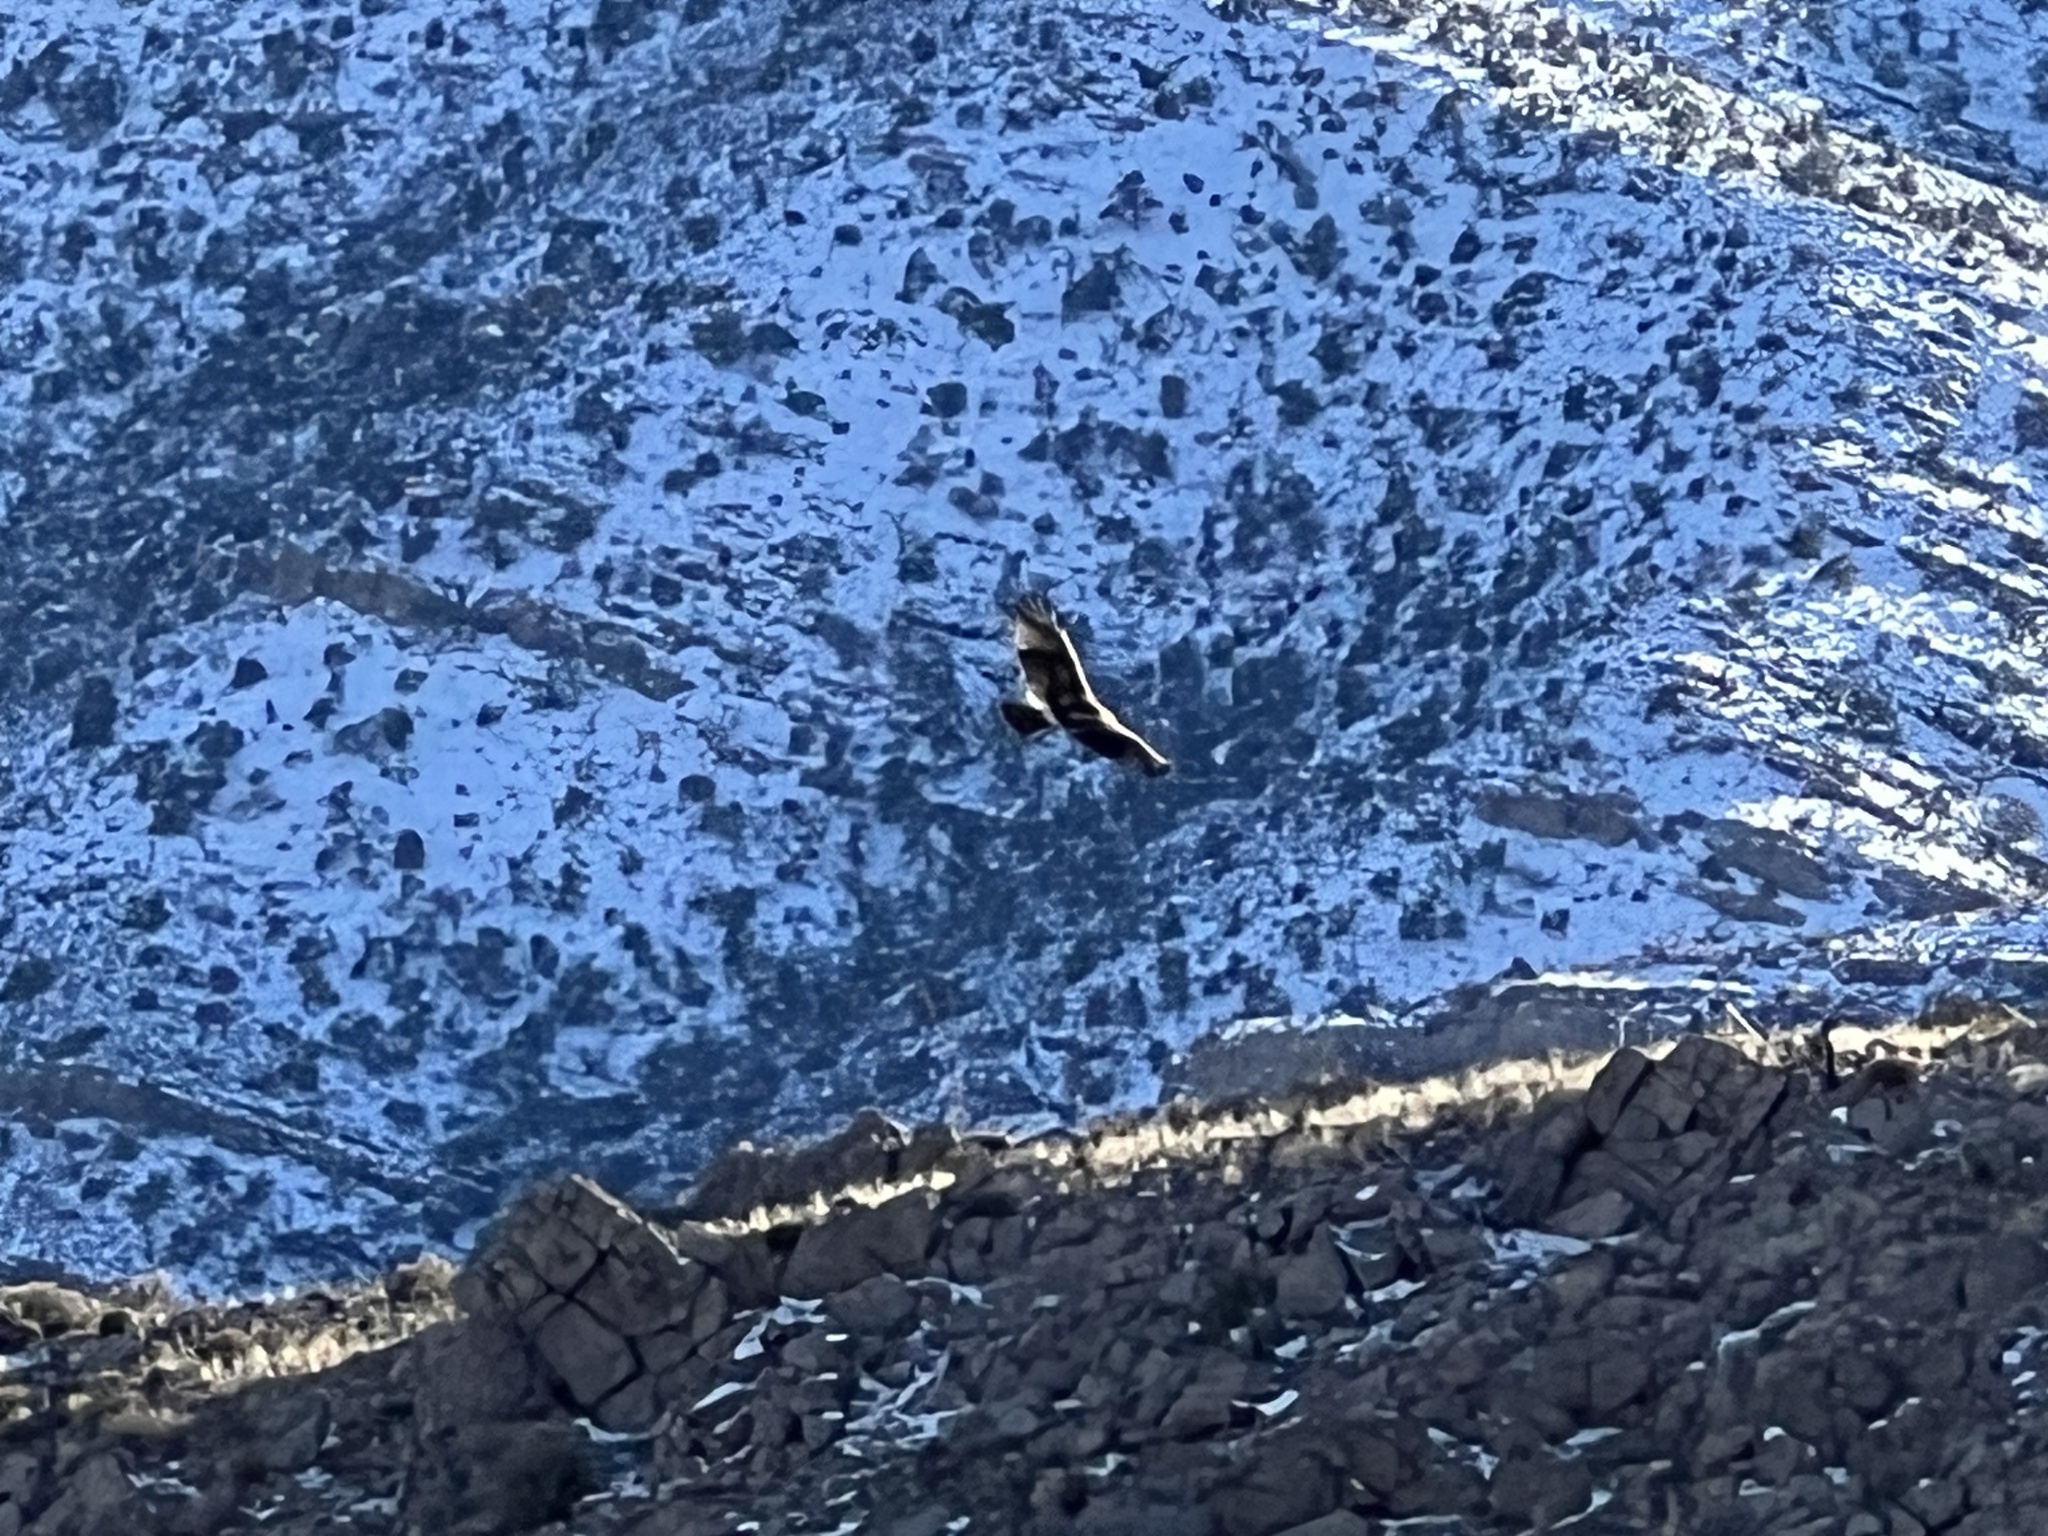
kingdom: Animalia
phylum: Chordata
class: Aves
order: Accipitriformes
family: Accipitridae
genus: Buteo
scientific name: Buteo jamaicensis
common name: Red-tailed hawk
